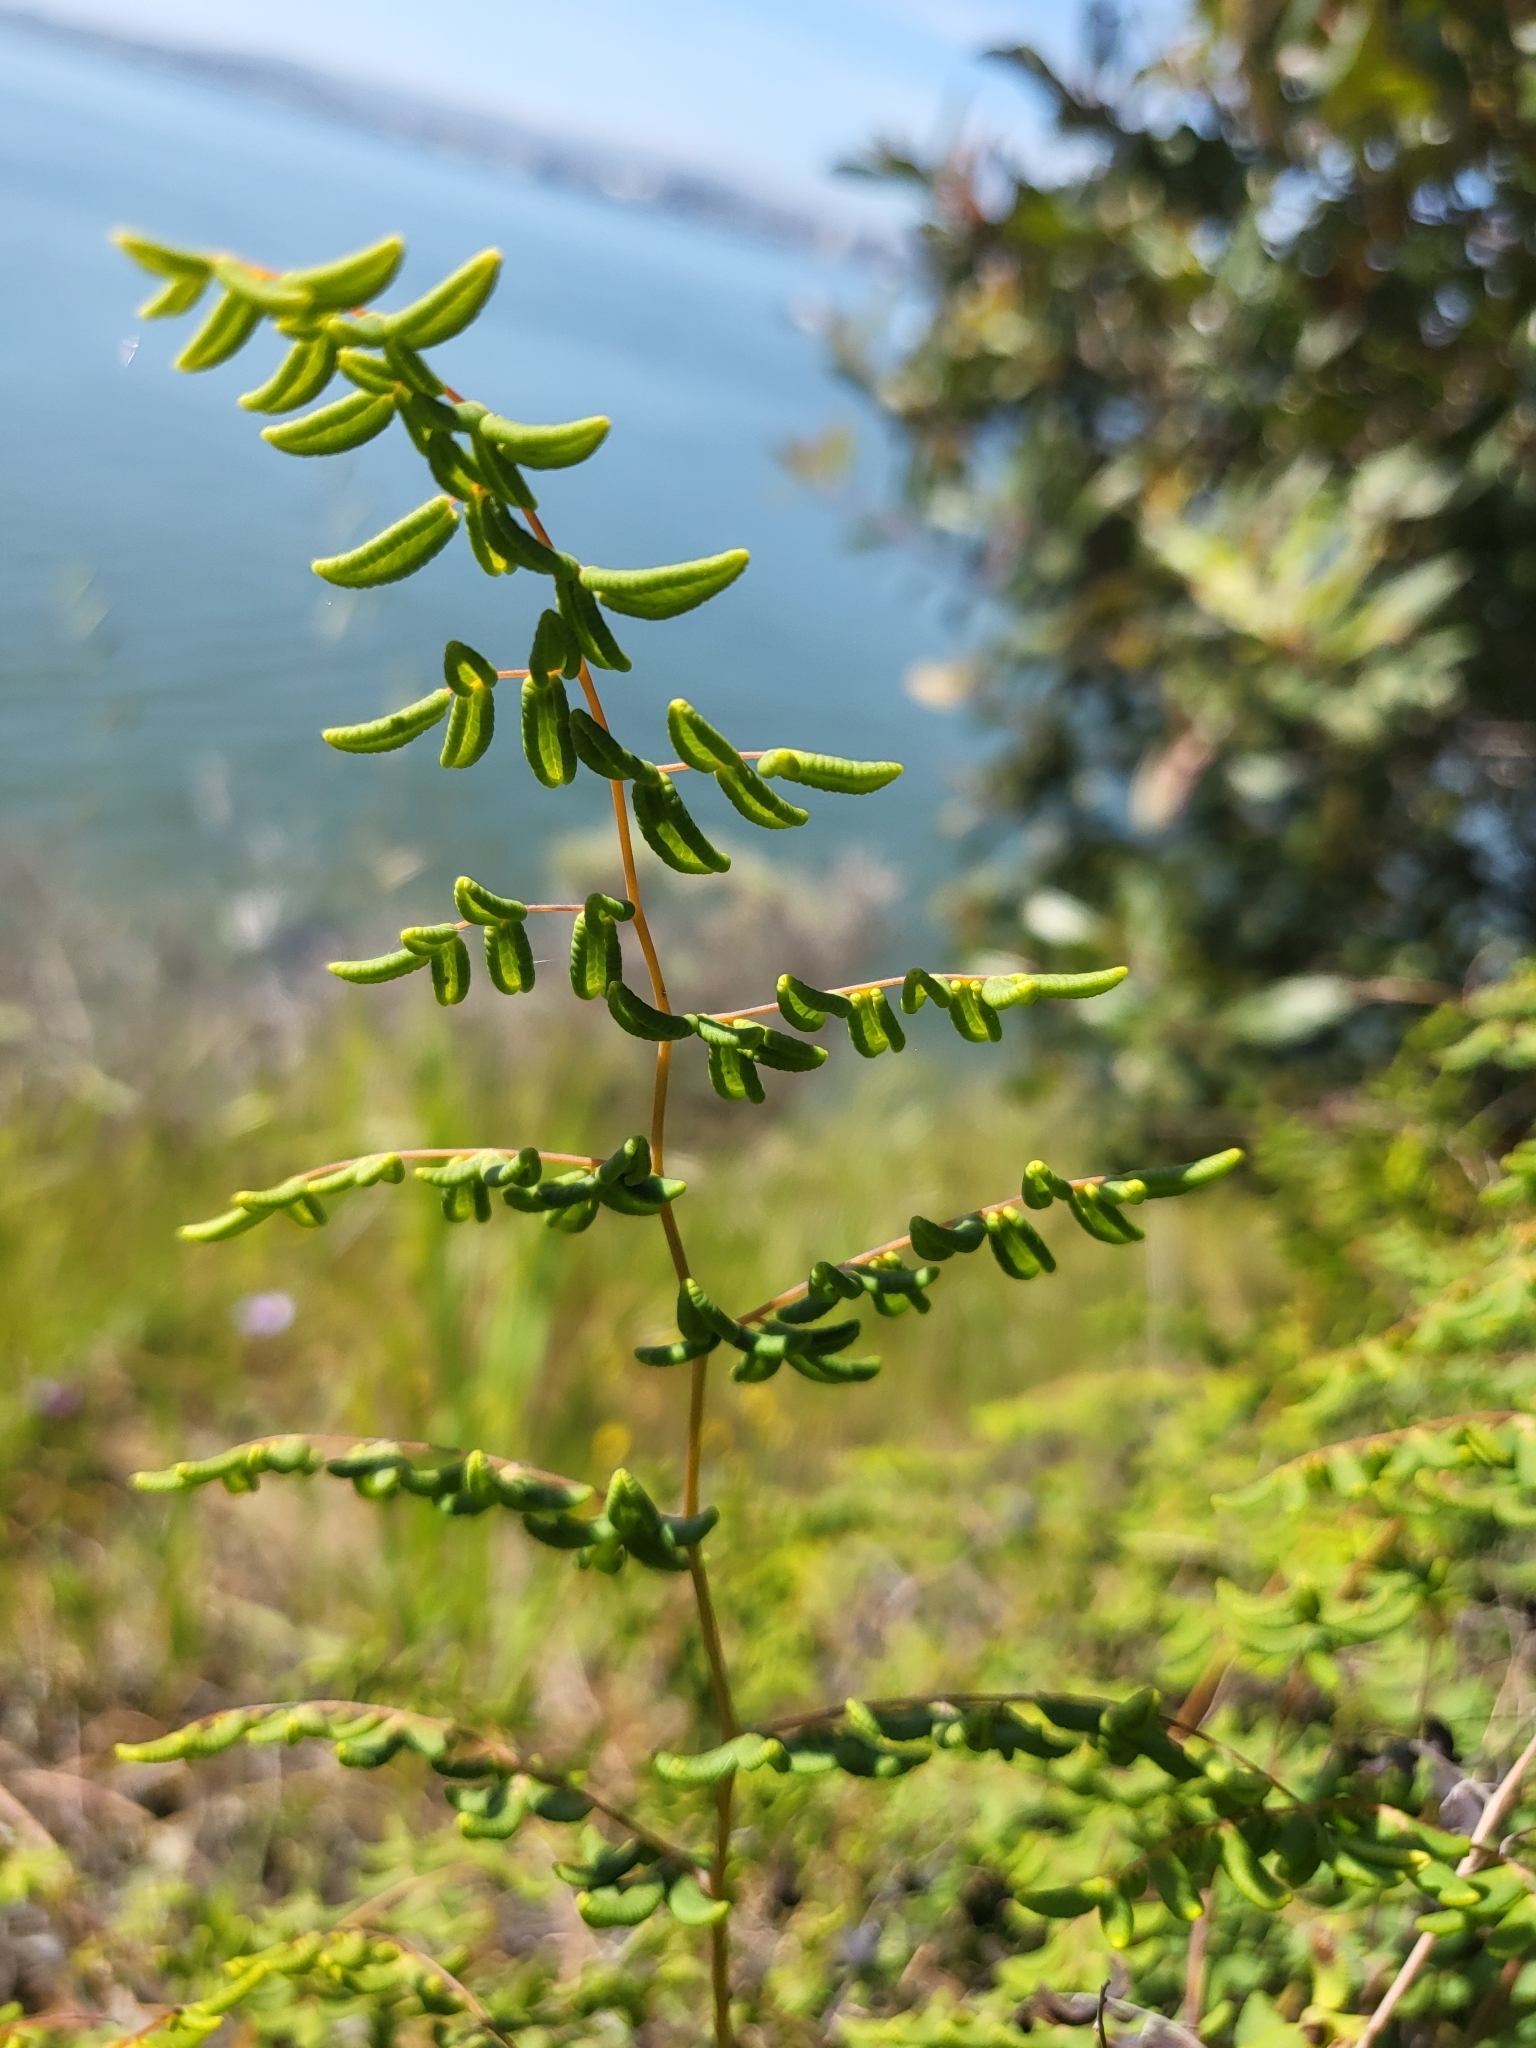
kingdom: Plantae
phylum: Tracheophyta
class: Polypodiopsida
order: Polypodiales
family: Pteridaceae
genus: Pellaea
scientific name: Pellaea andromedifolia
